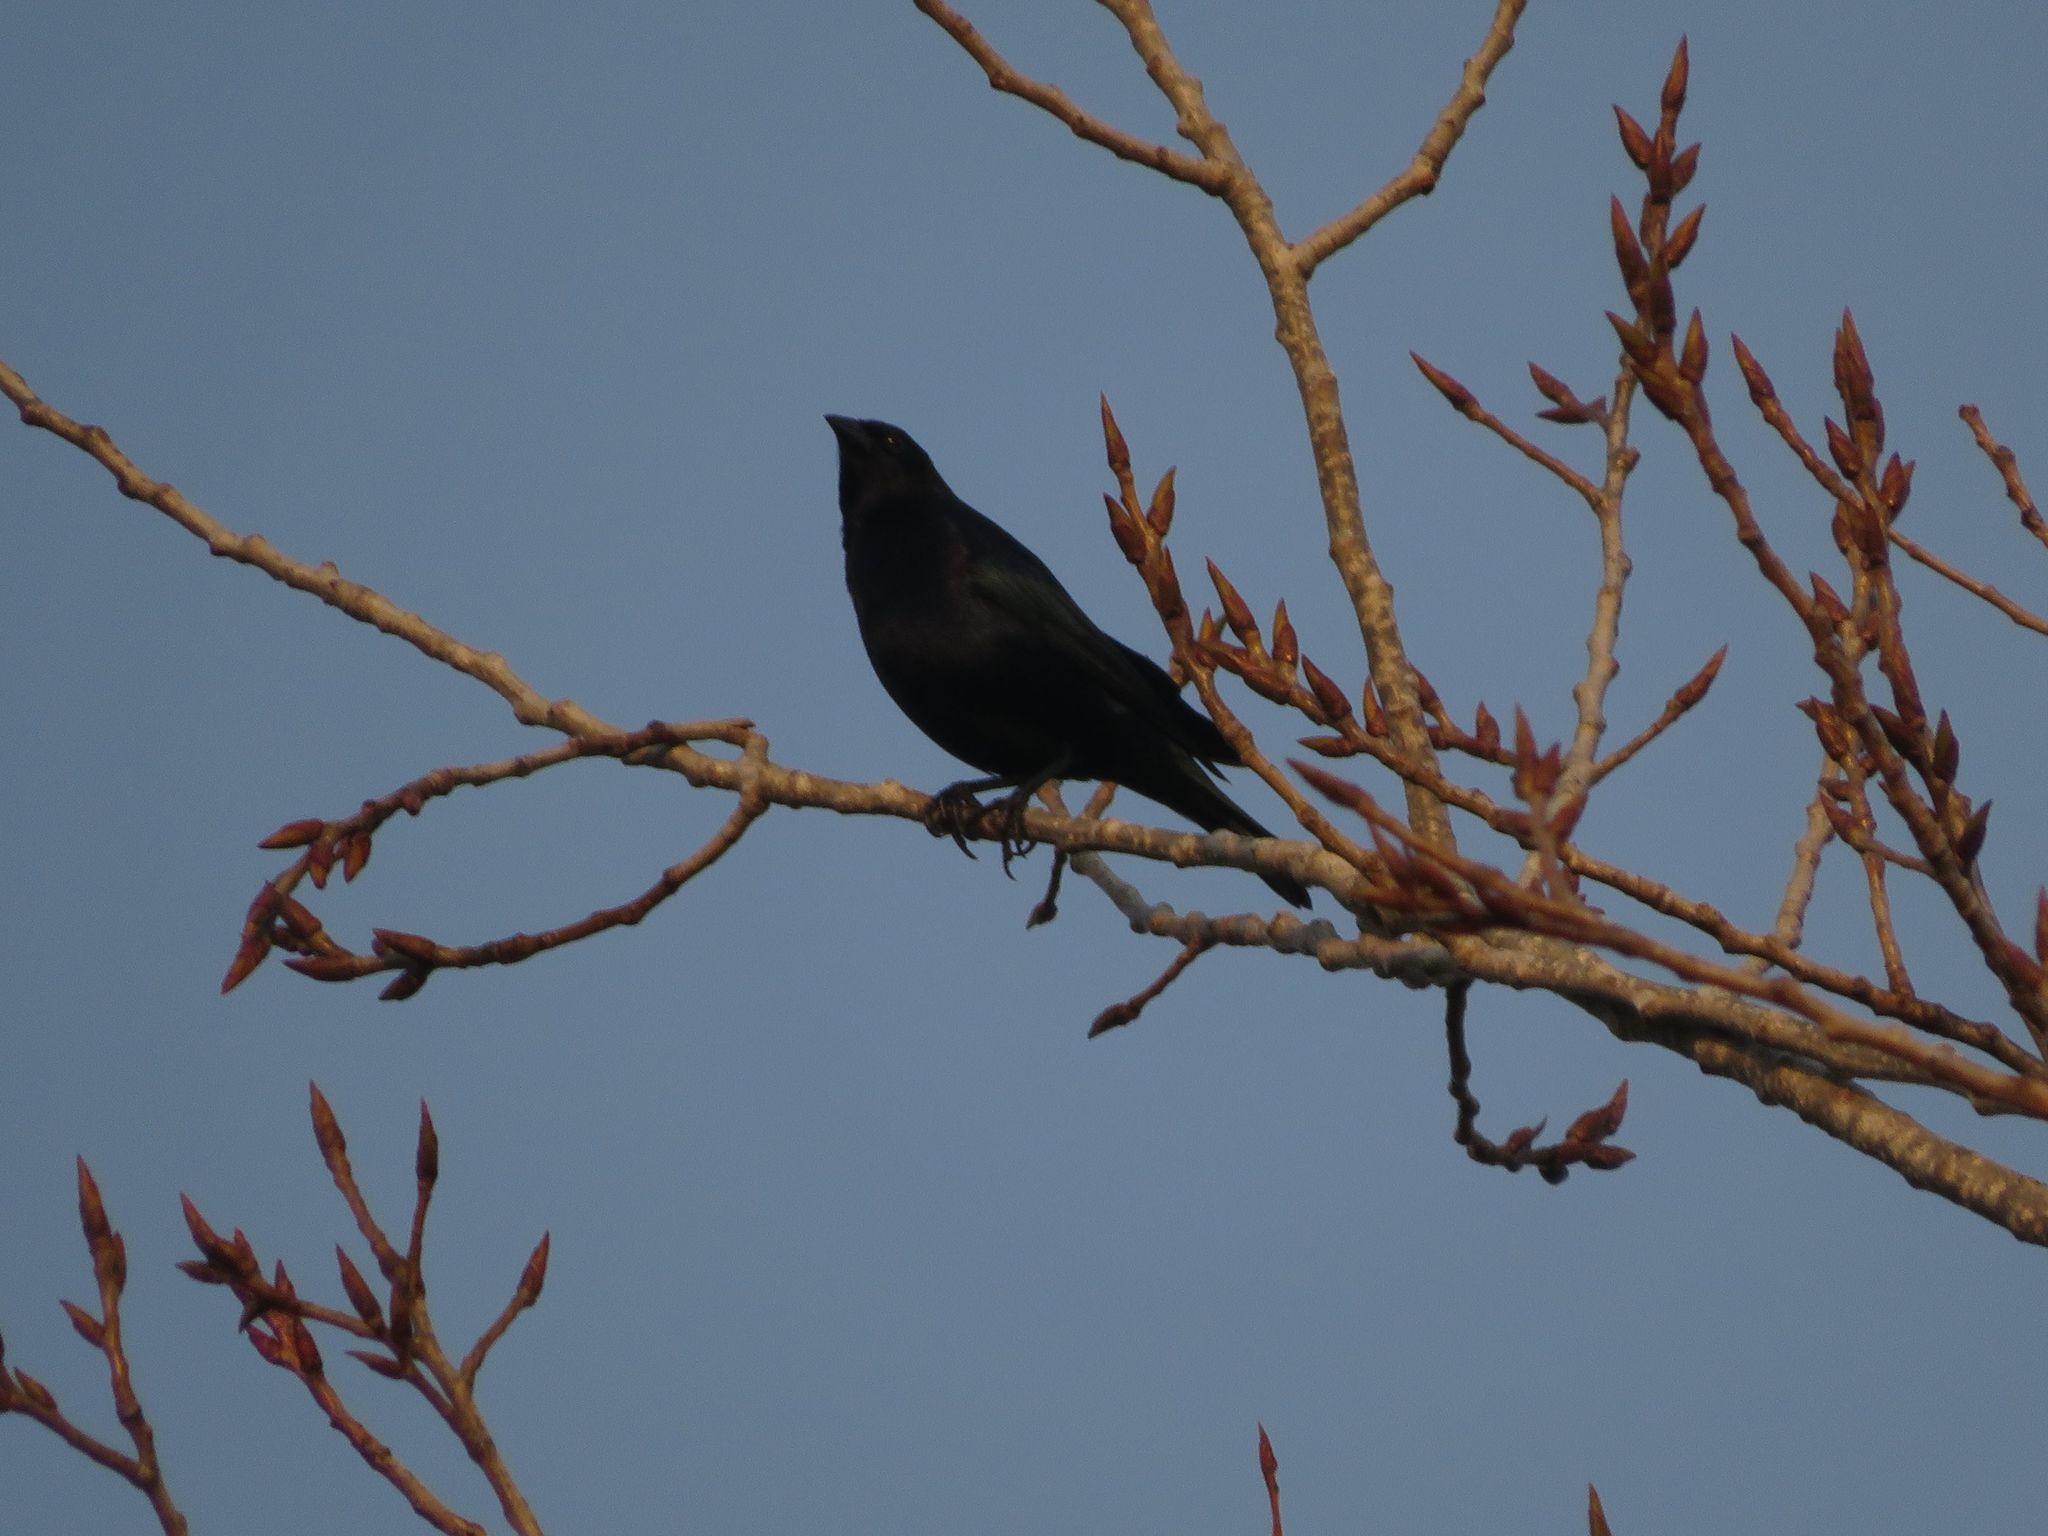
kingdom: Animalia
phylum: Chordata
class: Aves
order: Passeriformes
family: Icteridae
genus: Molothrus
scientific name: Molothrus bonariensis
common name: Shiny cowbird
